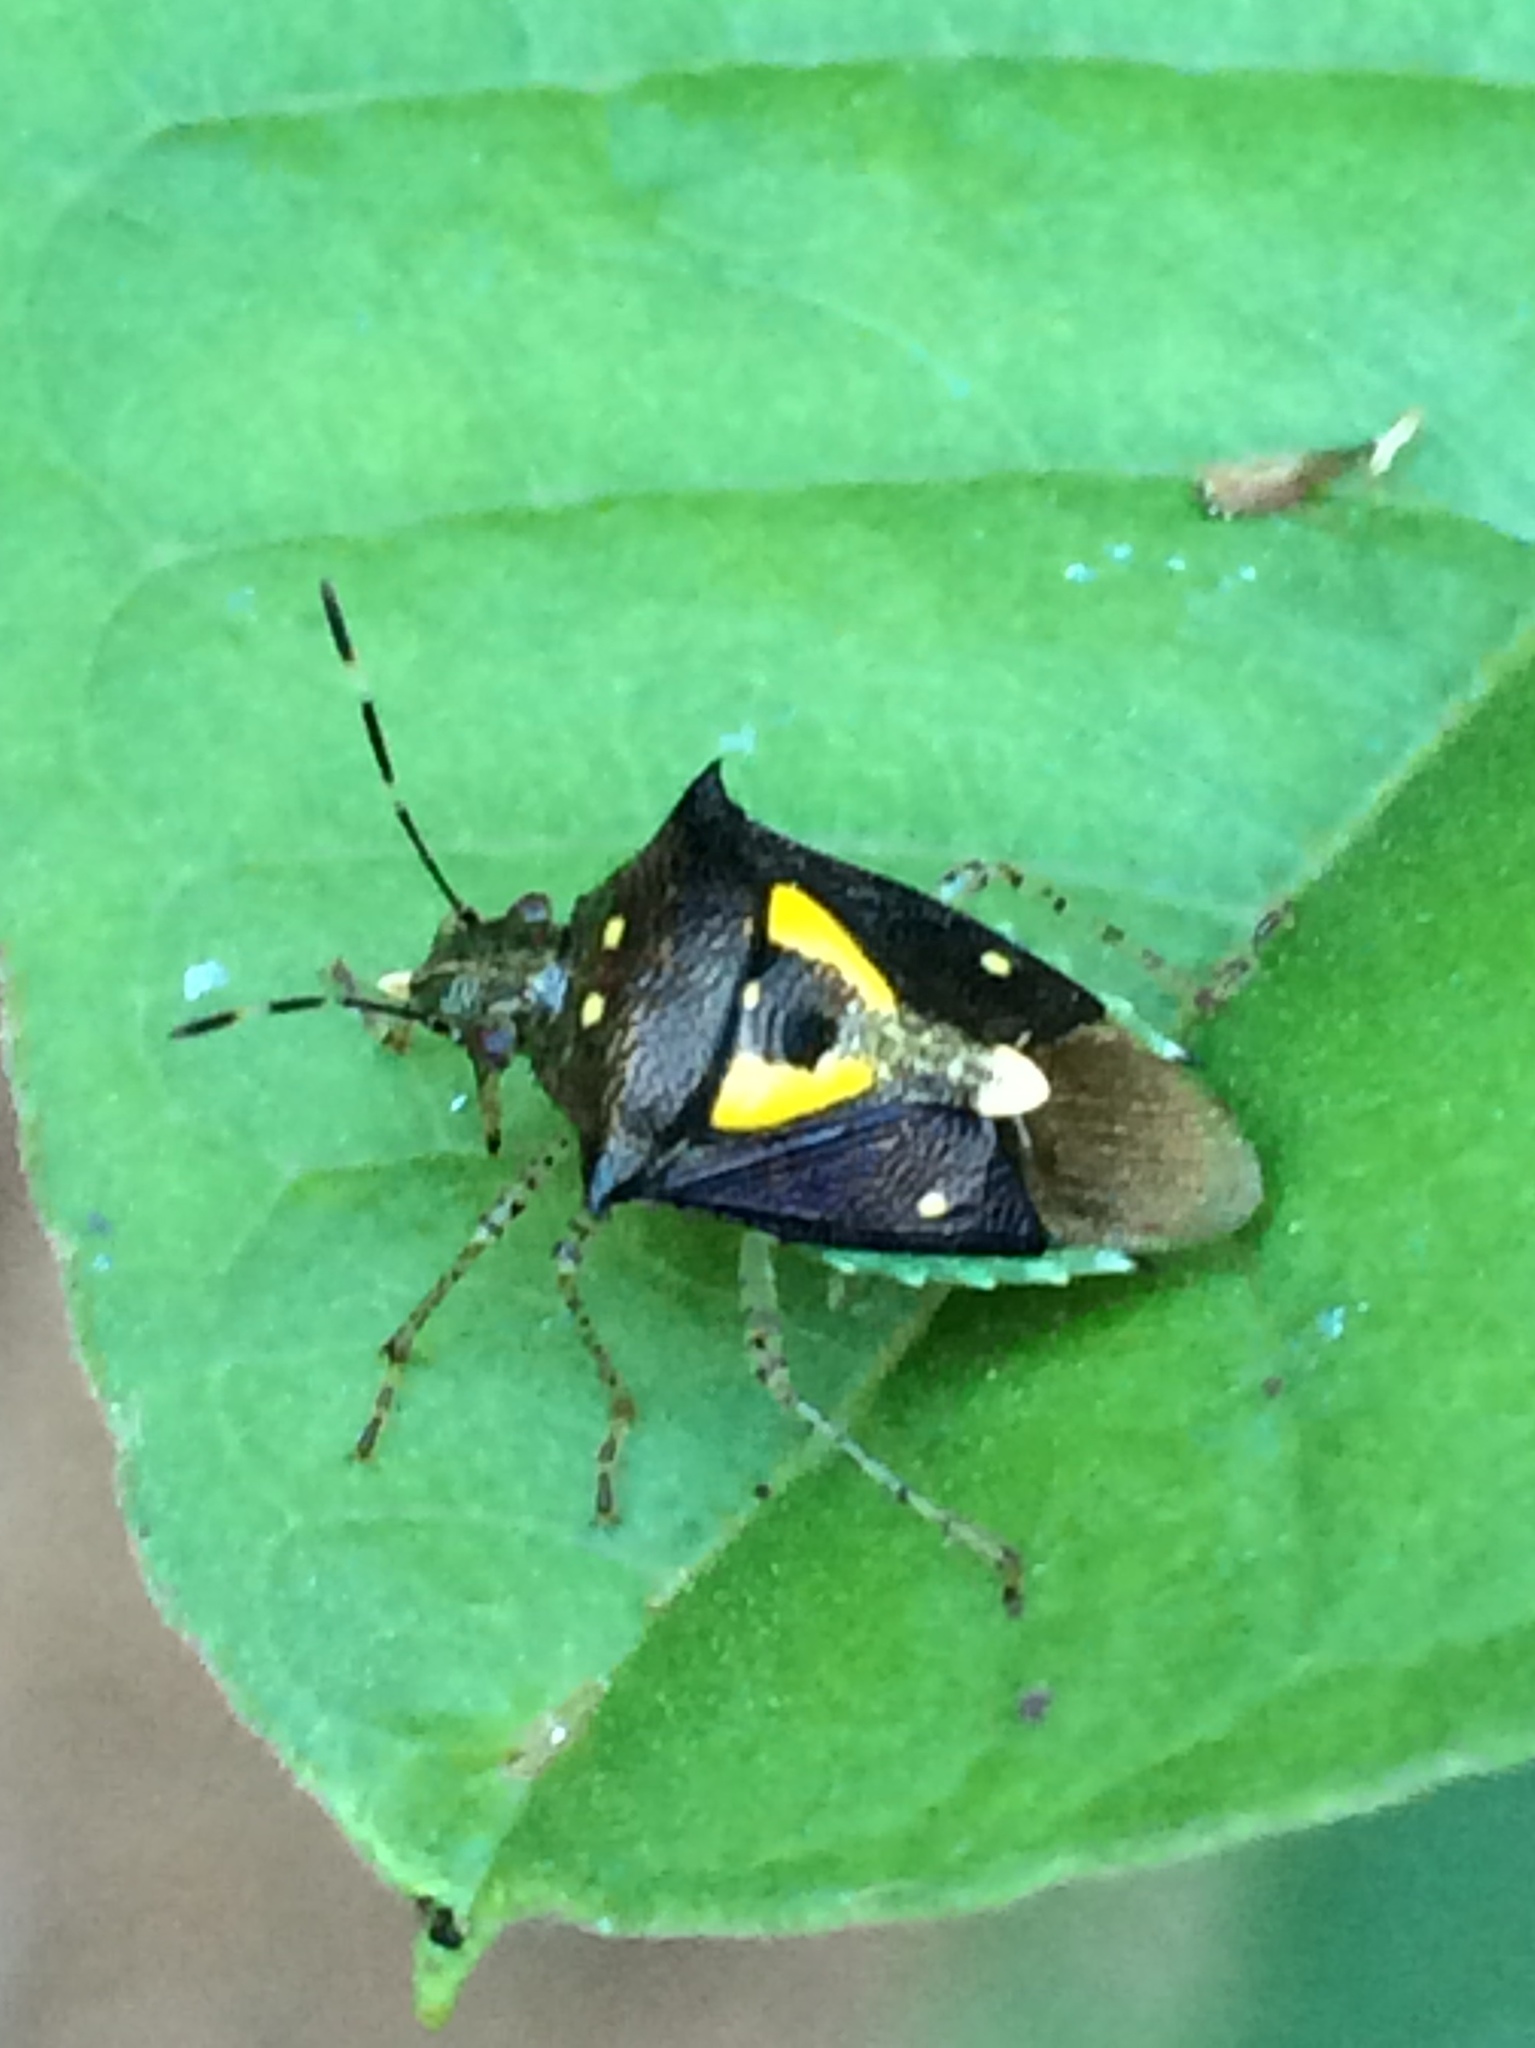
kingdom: Animalia
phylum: Arthropoda
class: Insecta
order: Hemiptera
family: Pentatomidae
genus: Mormidea
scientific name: Mormidea ypsilon
